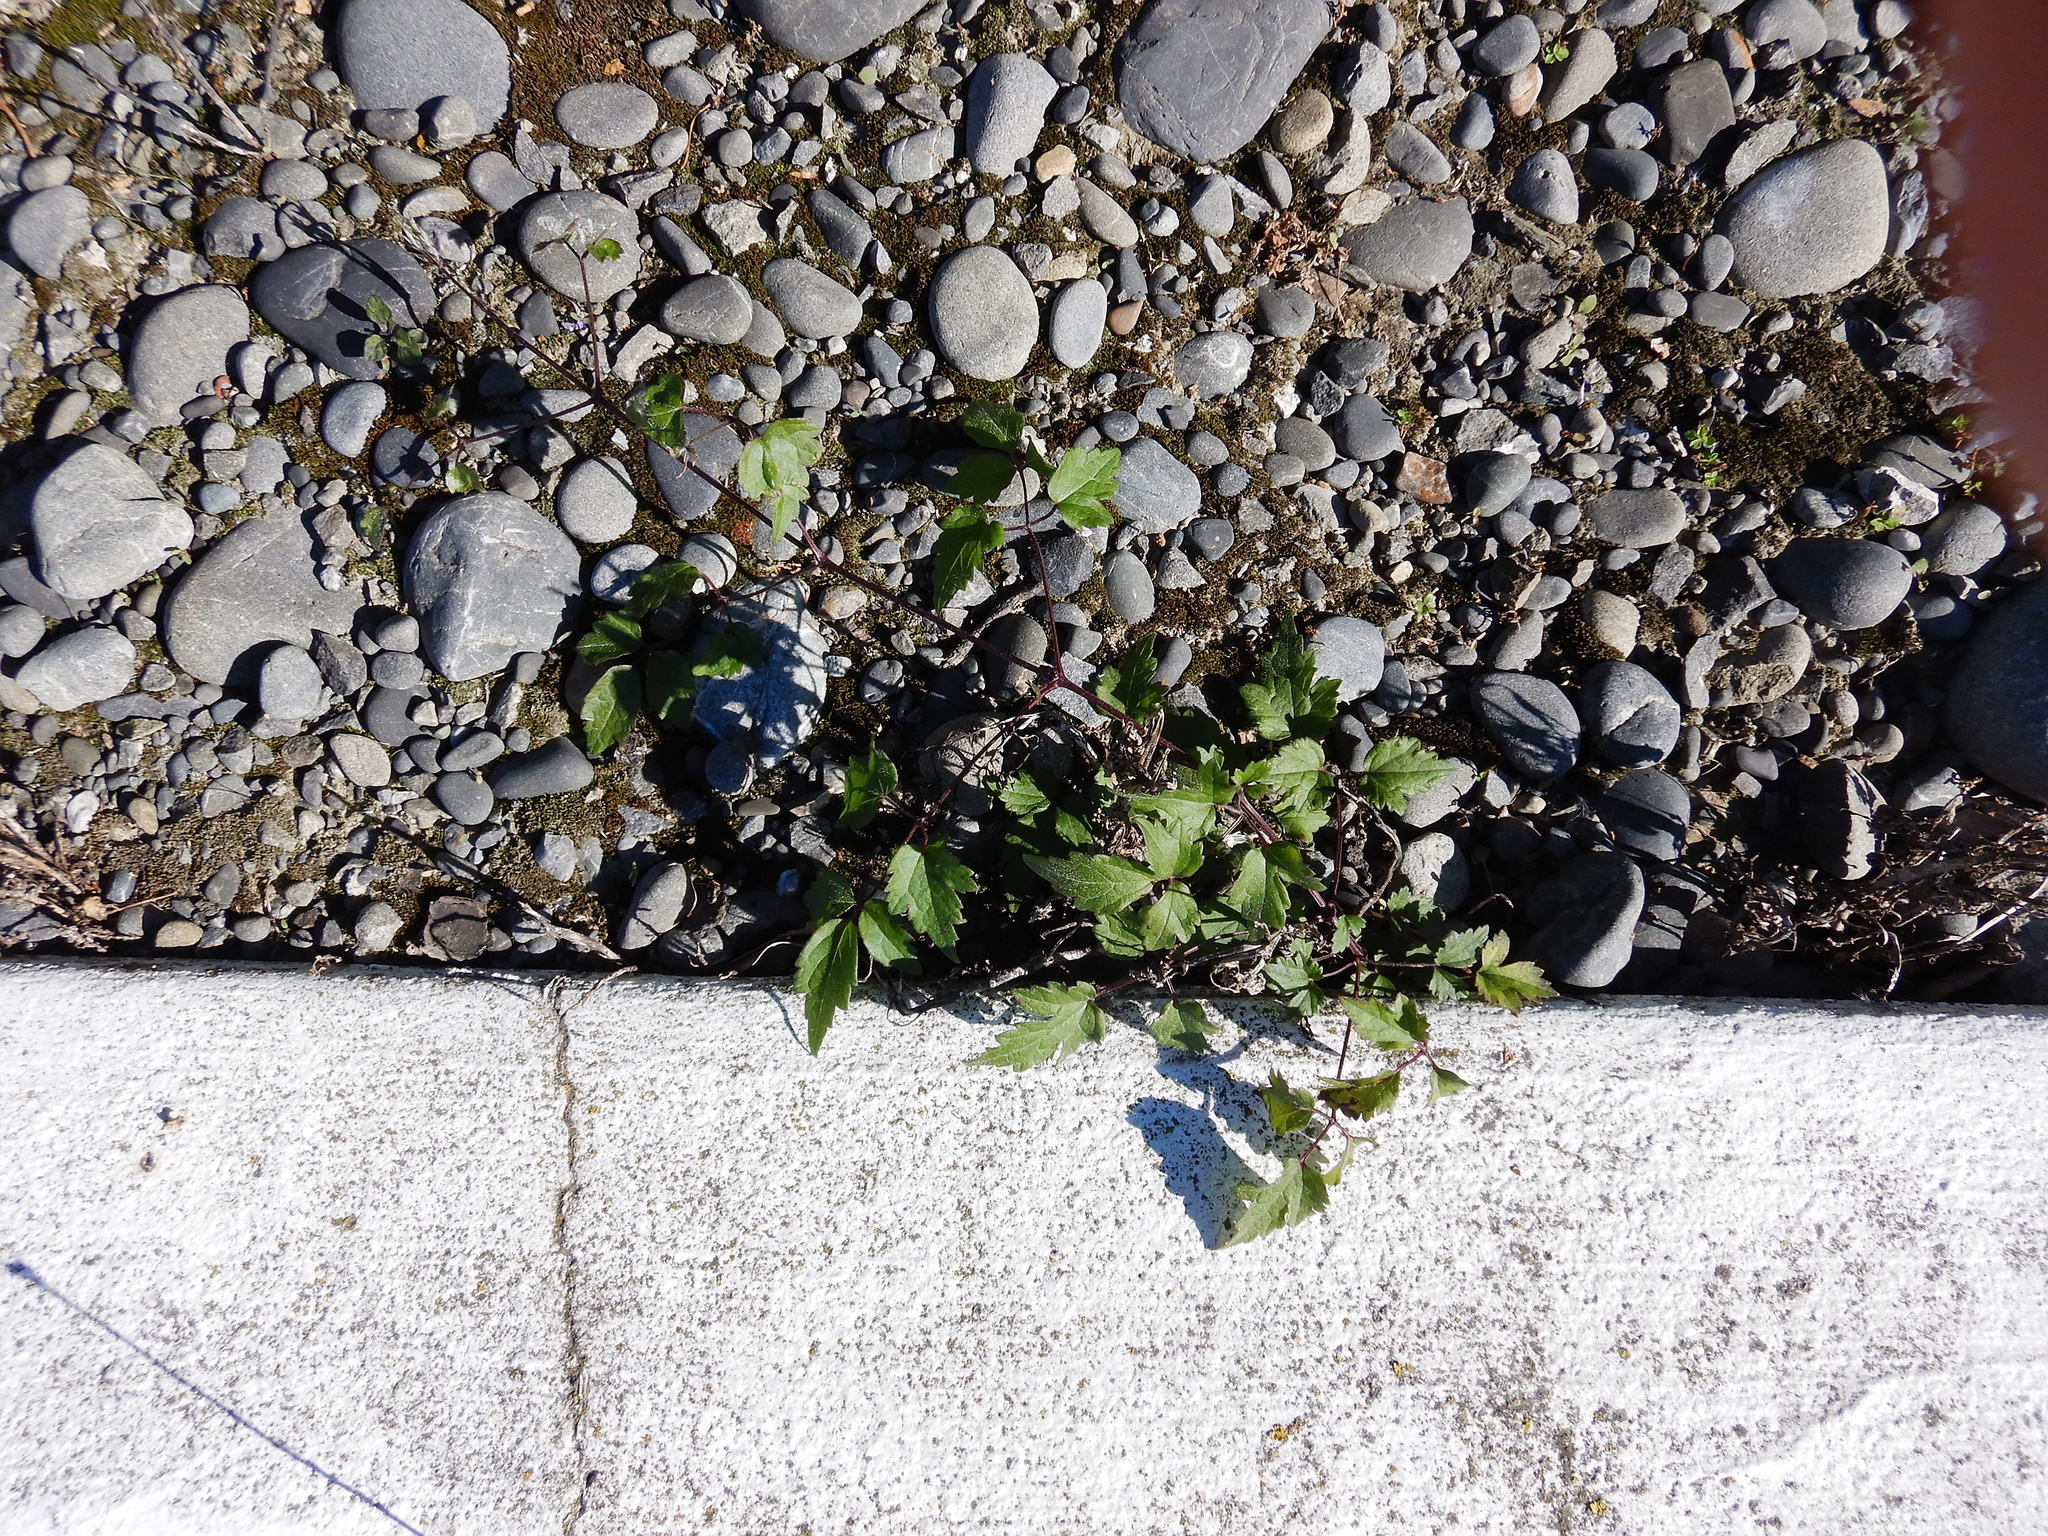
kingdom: Plantae
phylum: Tracheophyta
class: Magnoliopsida
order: Ranunculales
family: Ranunculaceae
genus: Clematis
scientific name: Clematis vitalba
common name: Evergreen clematis
